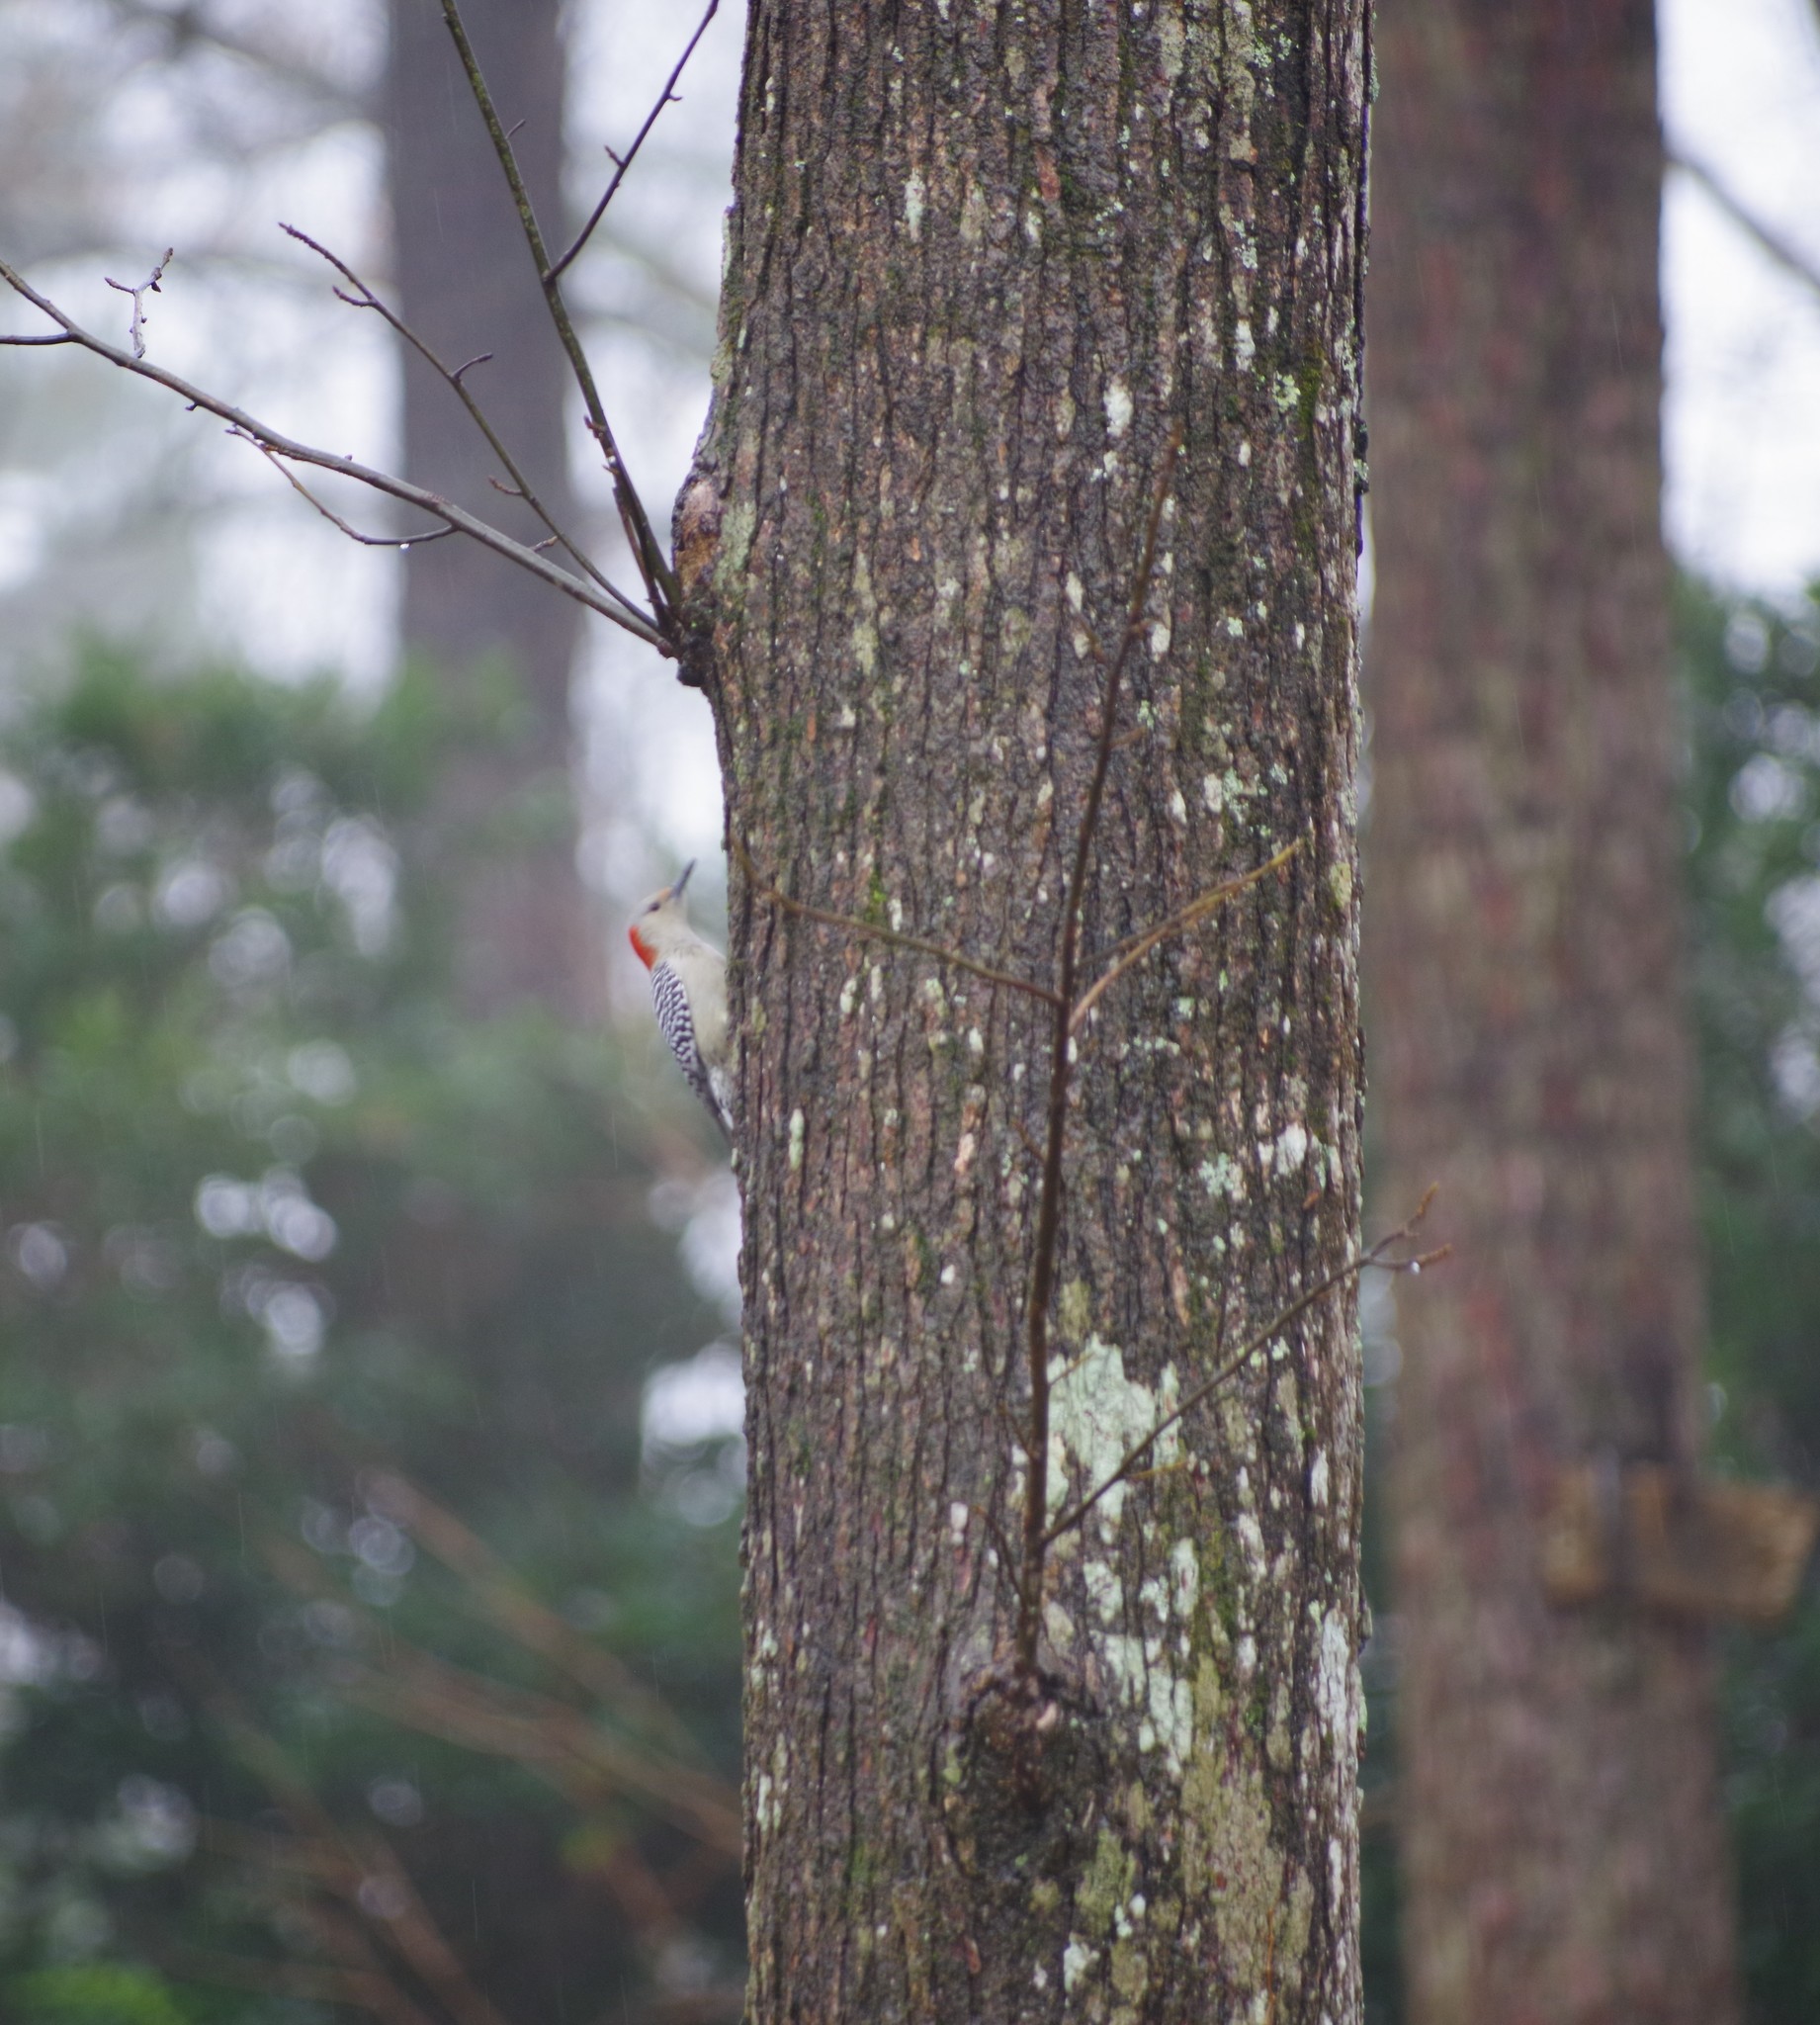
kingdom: Animalia
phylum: Chordata
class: Aves
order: Piciformes
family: Picidae
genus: Melanerpes
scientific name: Melanerpes carolinus
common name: Red-bellied woodpecker
